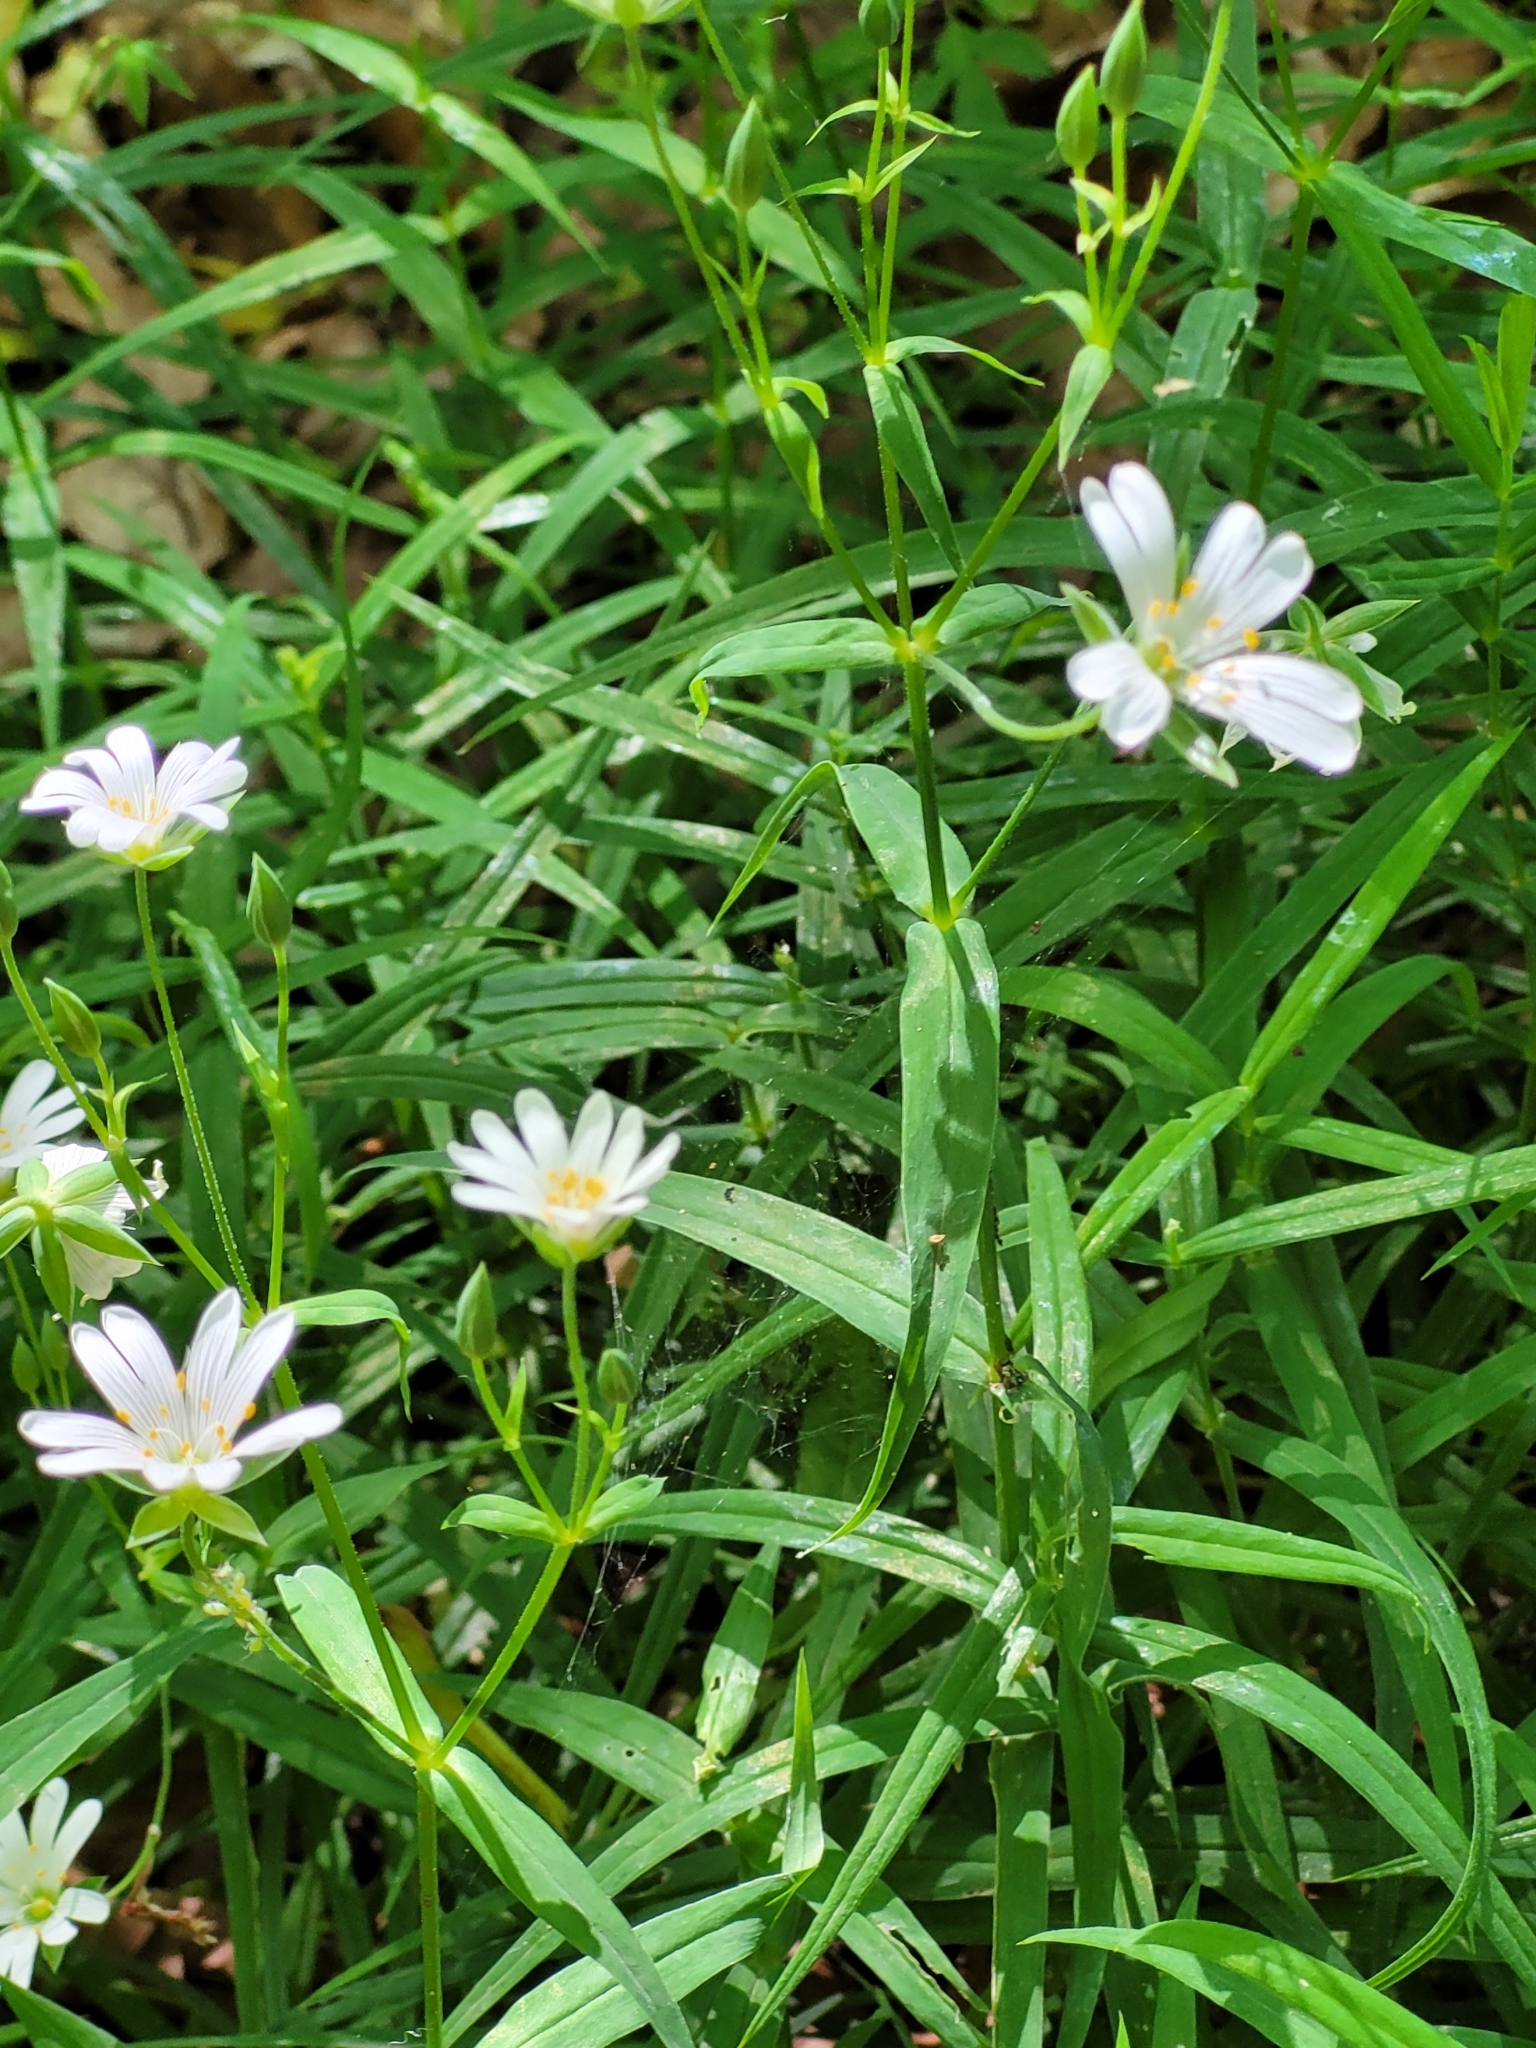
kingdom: Plantae
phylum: Tracheophyta
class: Magnoliopsida
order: Caryophyllales
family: Caryophyllaceae
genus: Rabelera
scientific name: Rabelera holostea
